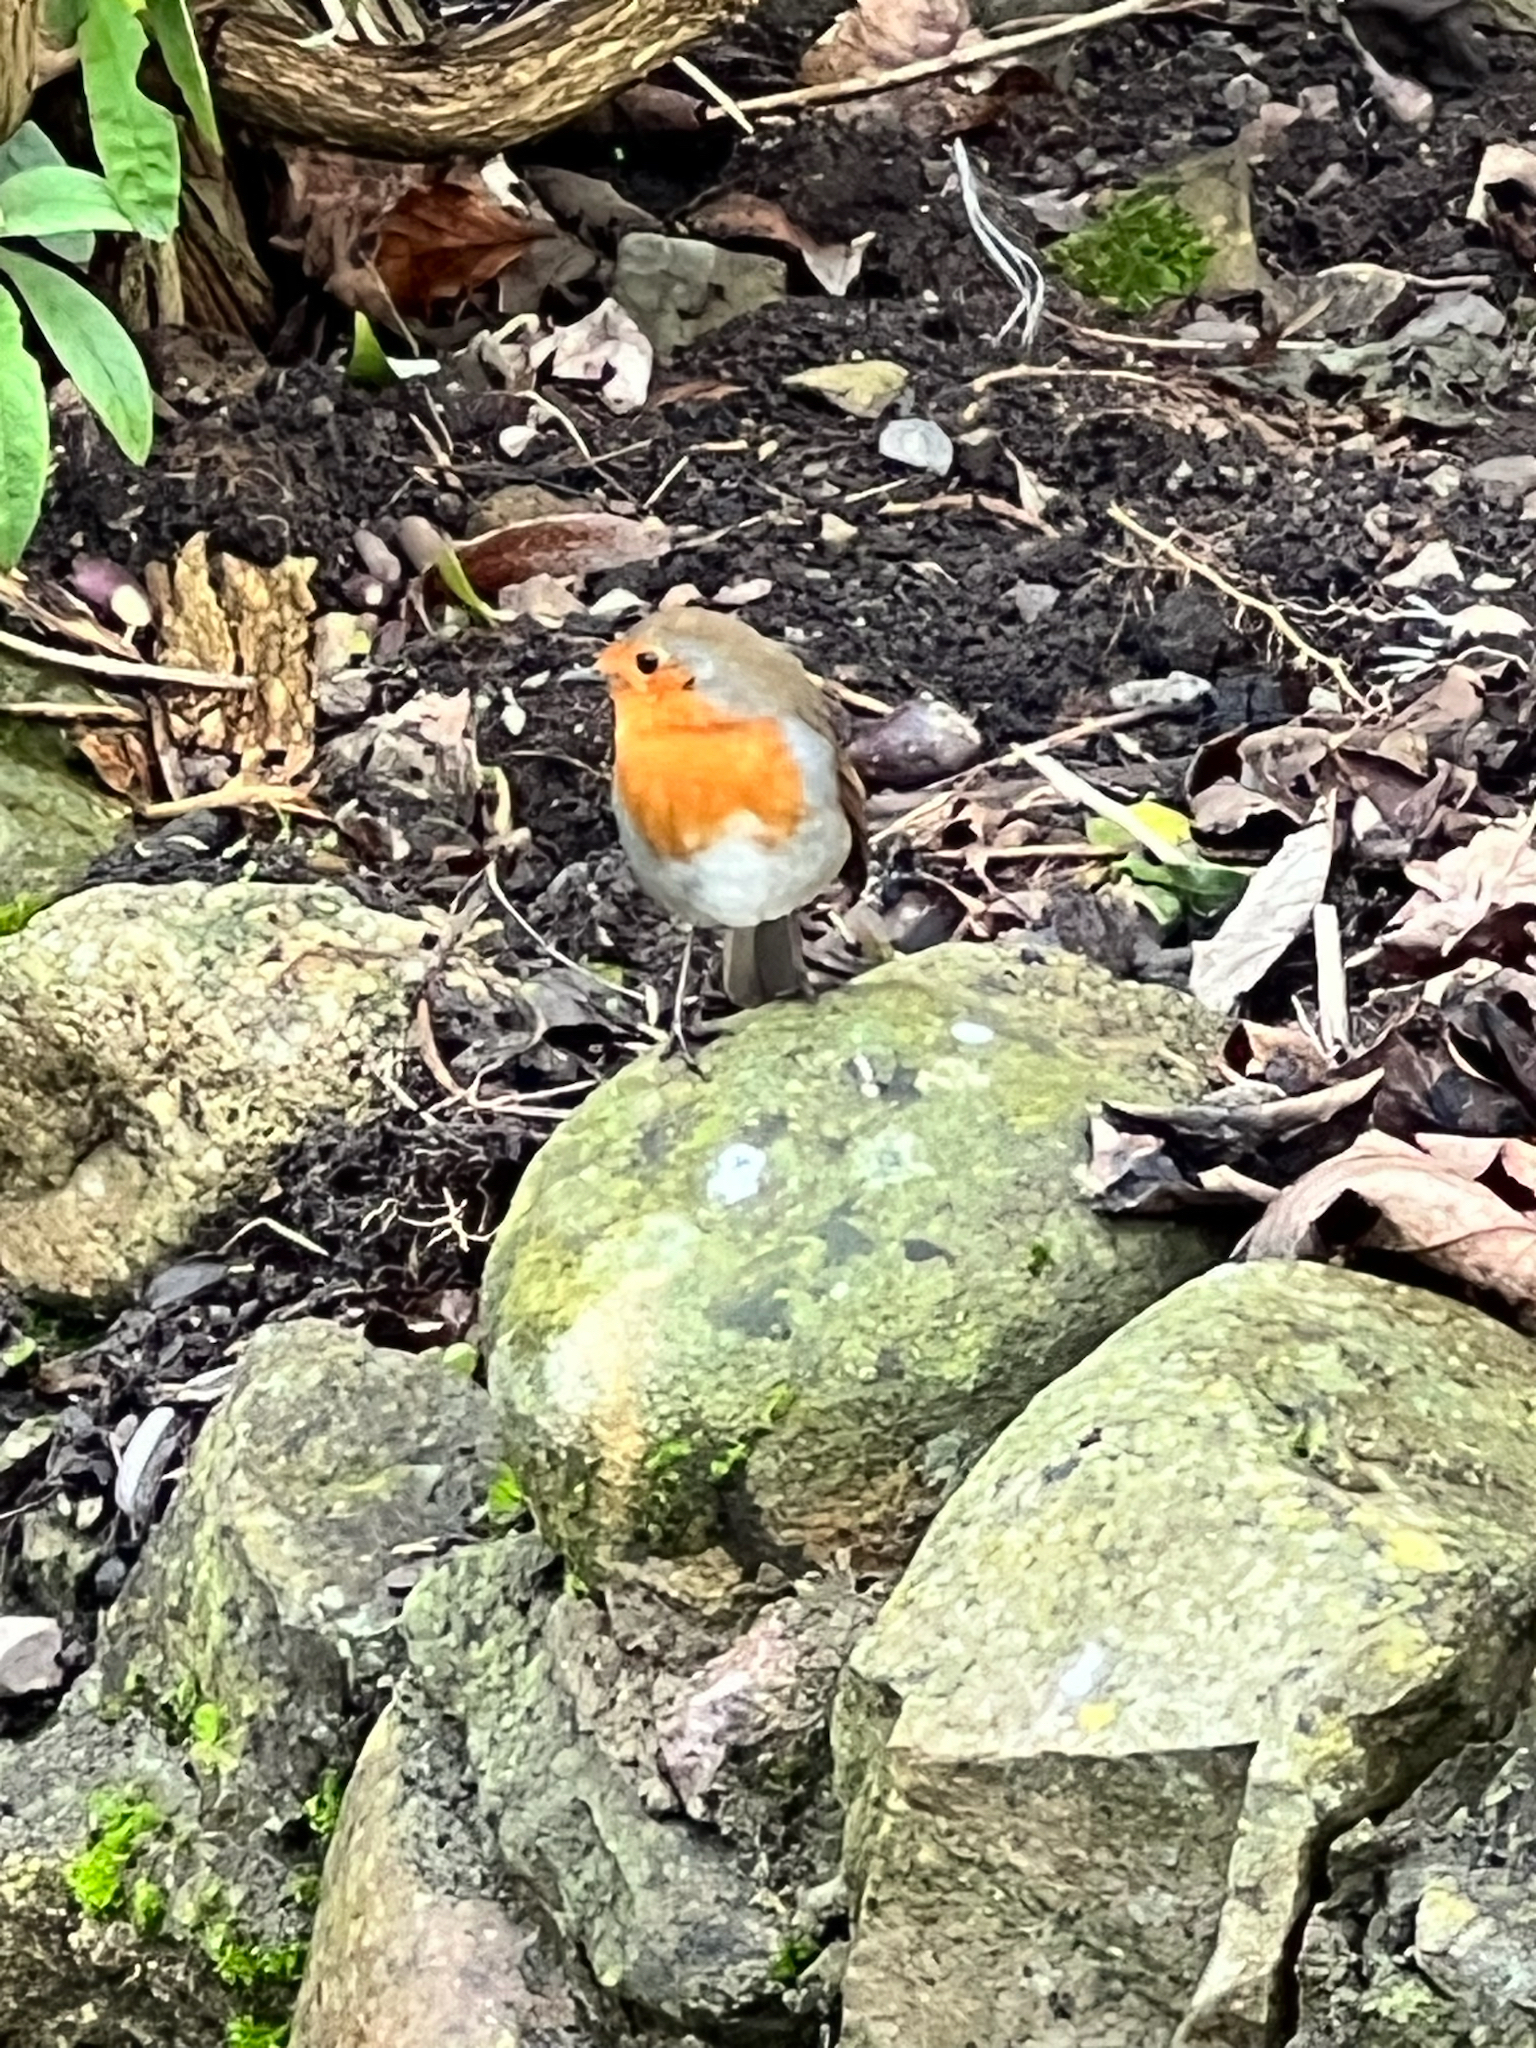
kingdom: Animalia
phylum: Chordata
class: Aves
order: Passeriformes
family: Muscicapidae
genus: Erithacus
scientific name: Erithacus rubecula
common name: European robin
